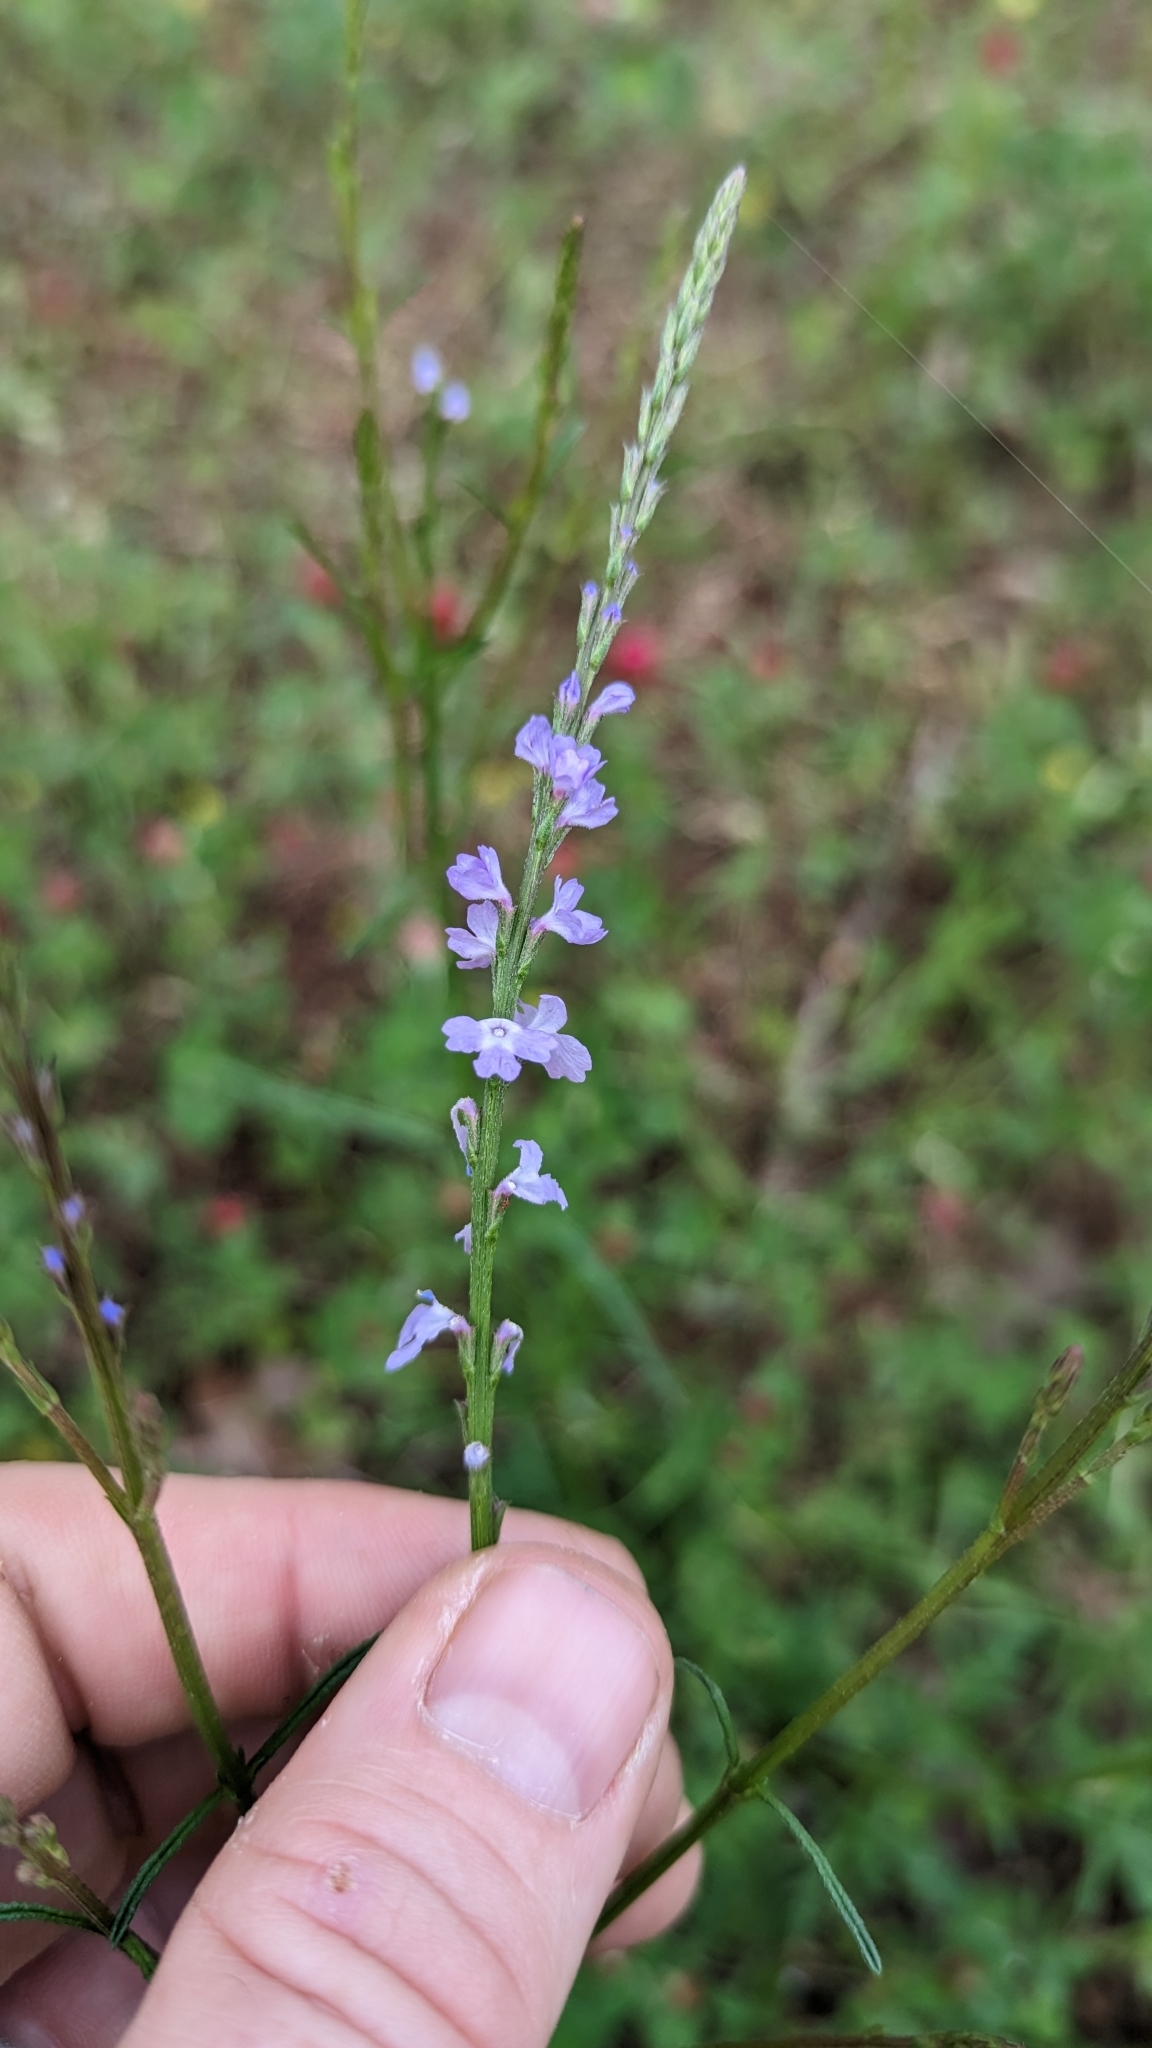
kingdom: Plantae
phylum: Tracheophyta
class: Magnoliopsida
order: Lamiales
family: Verbenaceae
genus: Verbena
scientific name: Verbena halei
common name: Texas vervain
